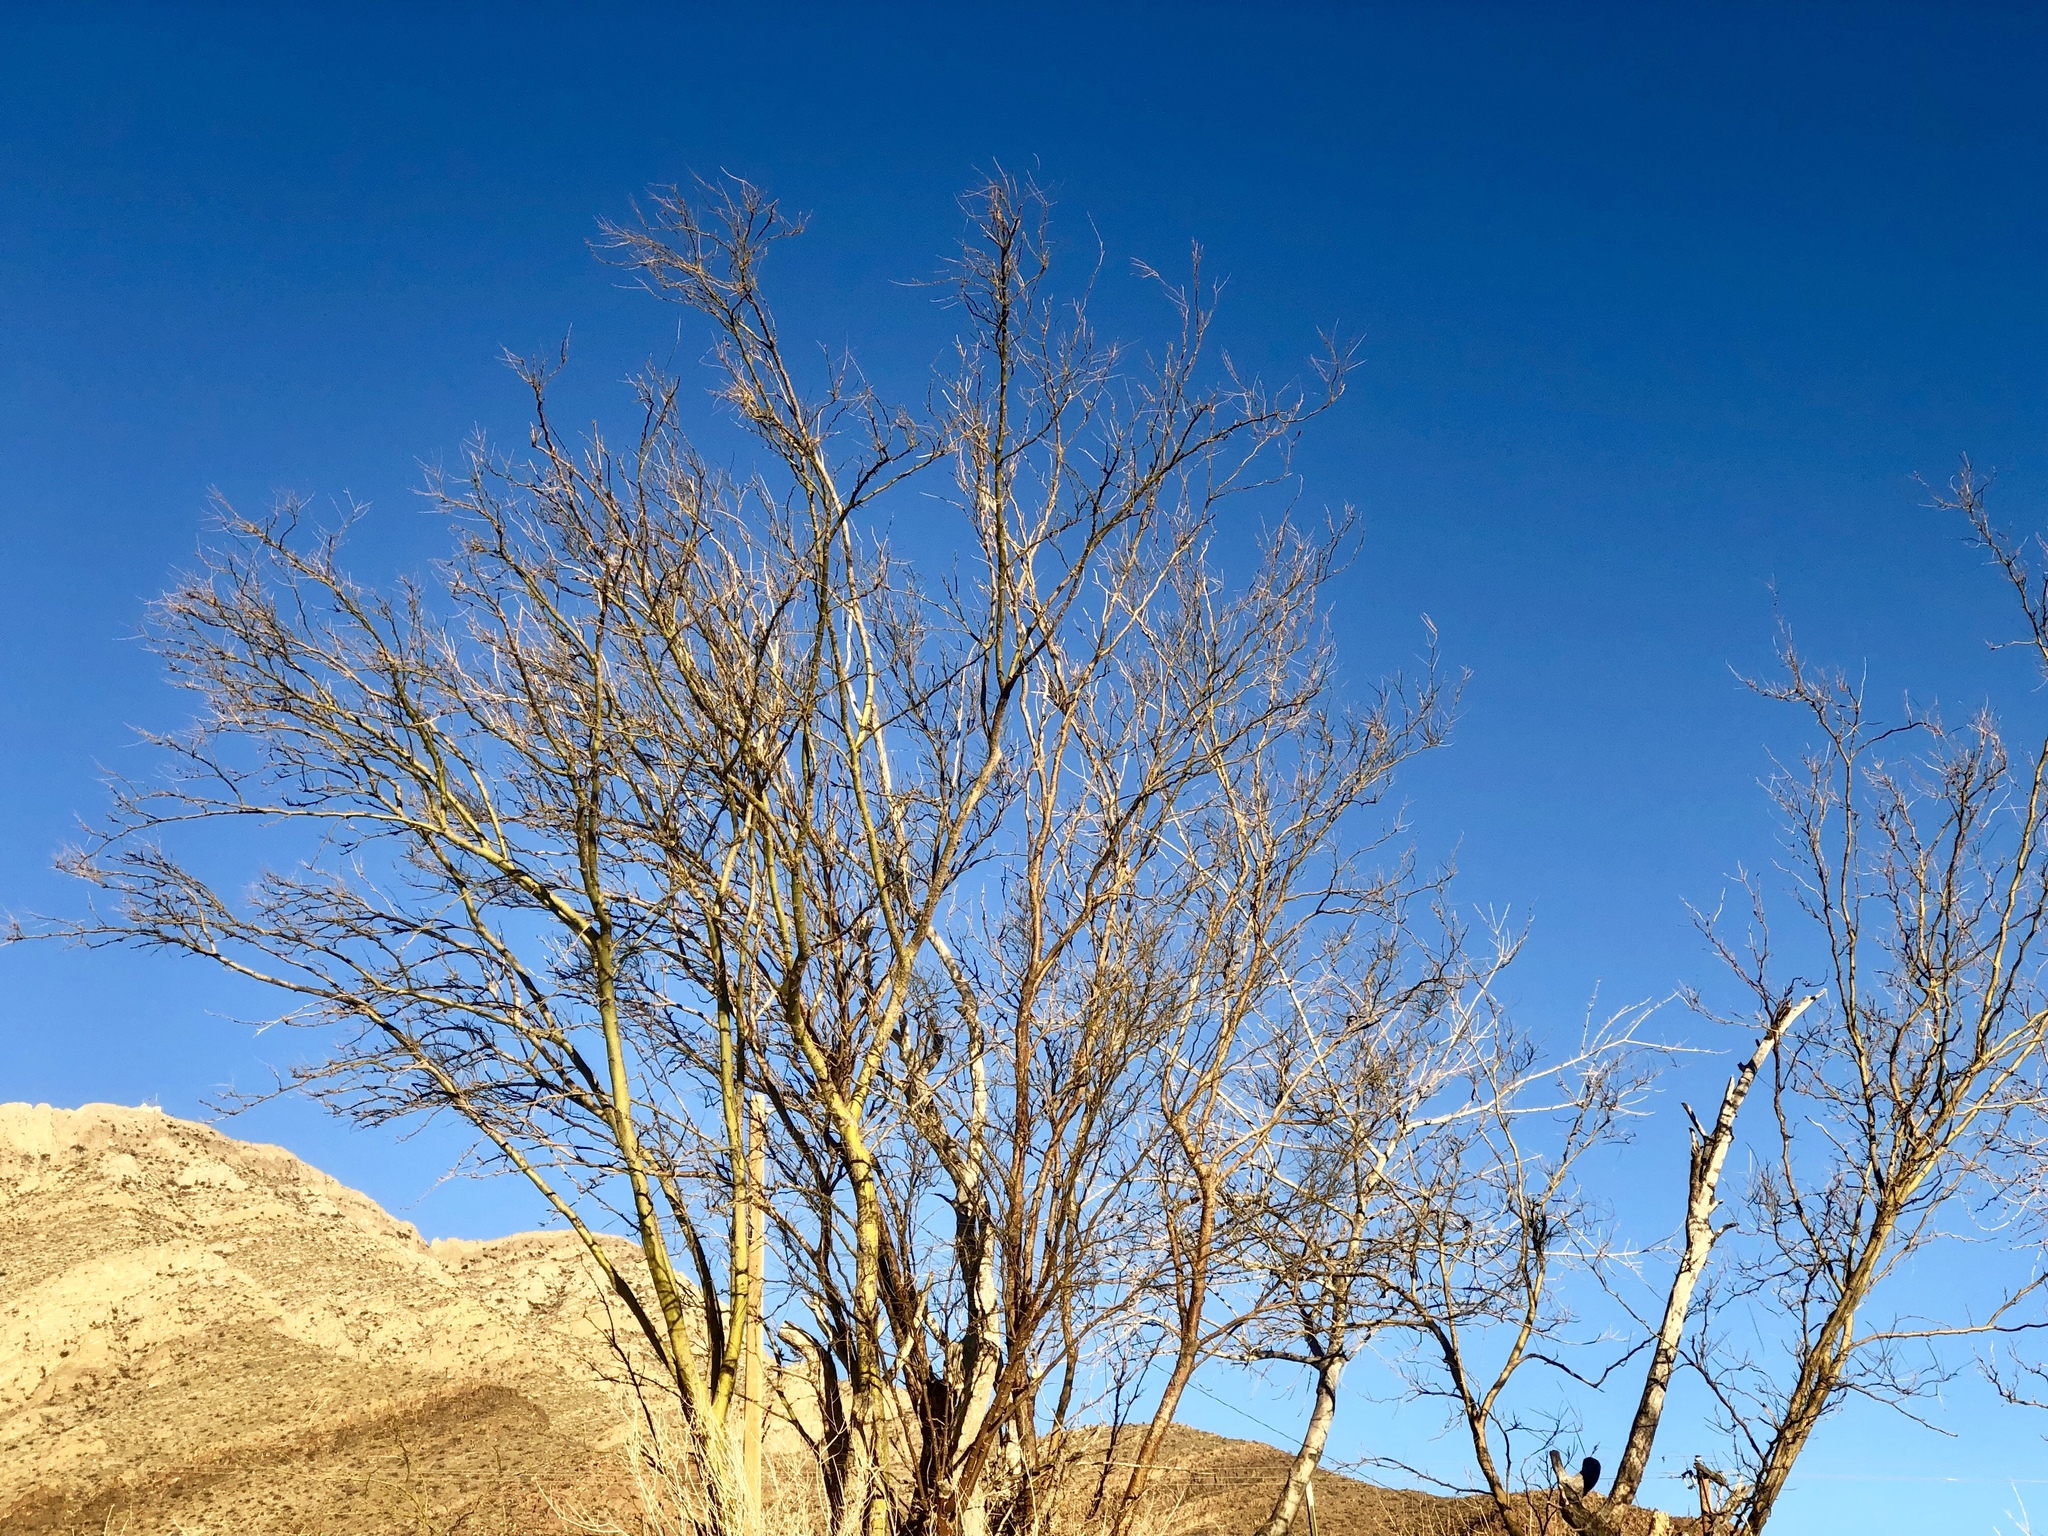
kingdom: Plantae
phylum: Tracheophyta
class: Magnoliopsida
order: Fabales
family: Fabaceae
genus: Parkinsonia
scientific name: Parkinsonia aculeata
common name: Jerusalem thorn
